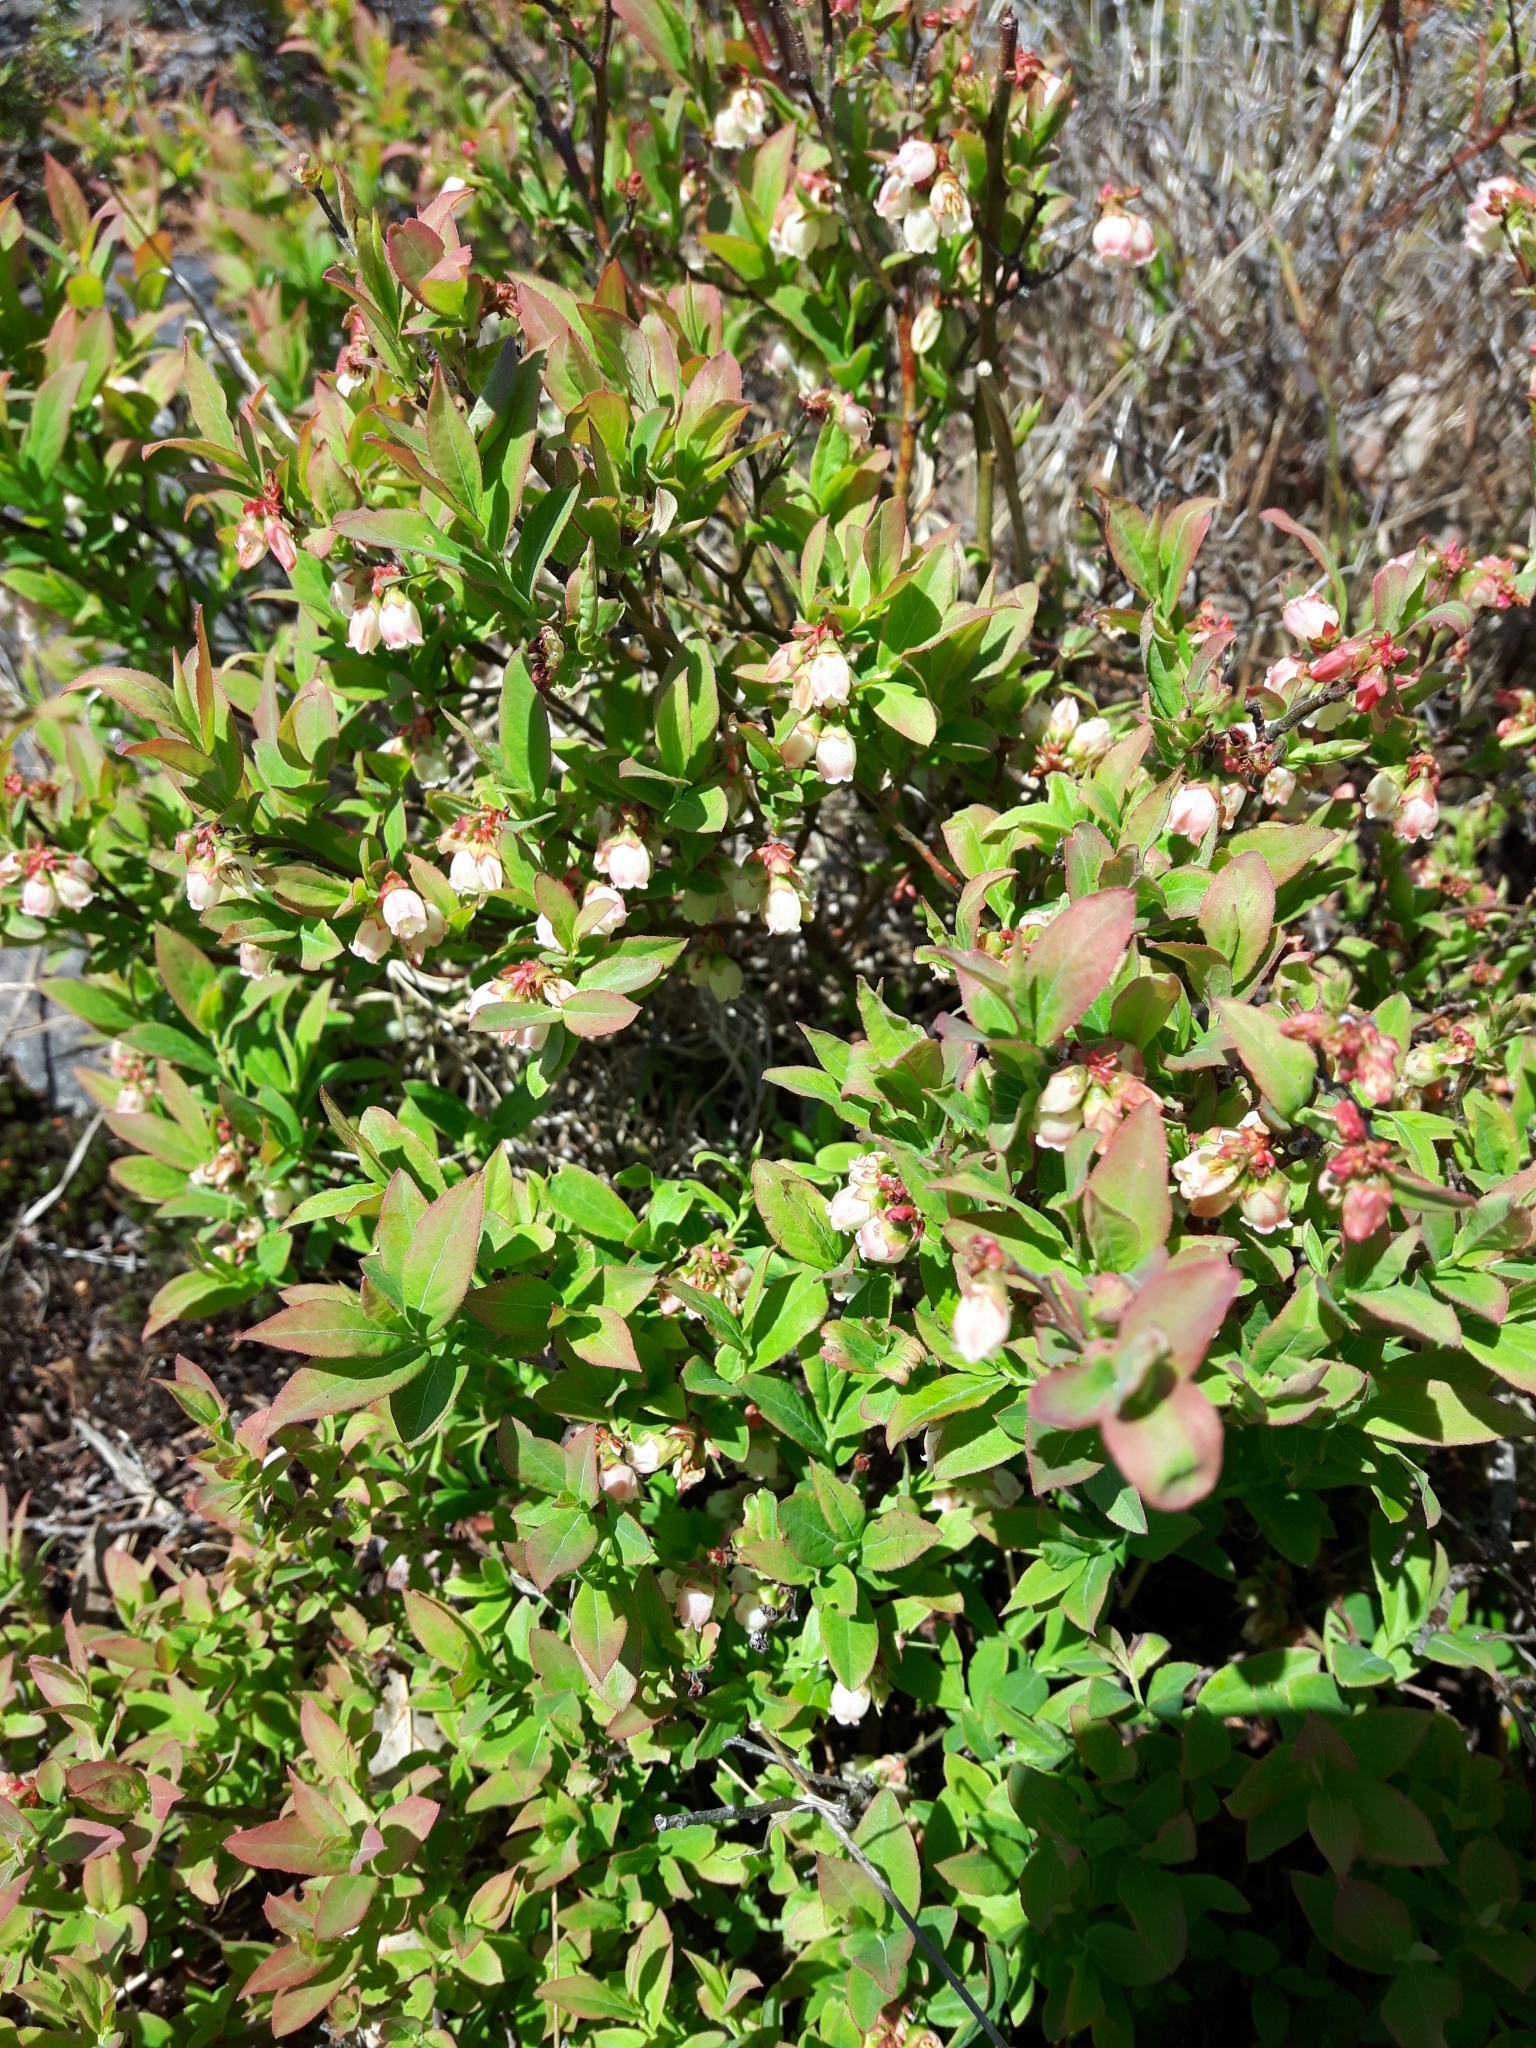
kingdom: Plantae
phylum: Tracheophyta
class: Magnoliopsida
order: Ericales
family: Ericaceae
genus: Vaccinium
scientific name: Vaccinium angustifolium
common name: Early lowbush blueberry
